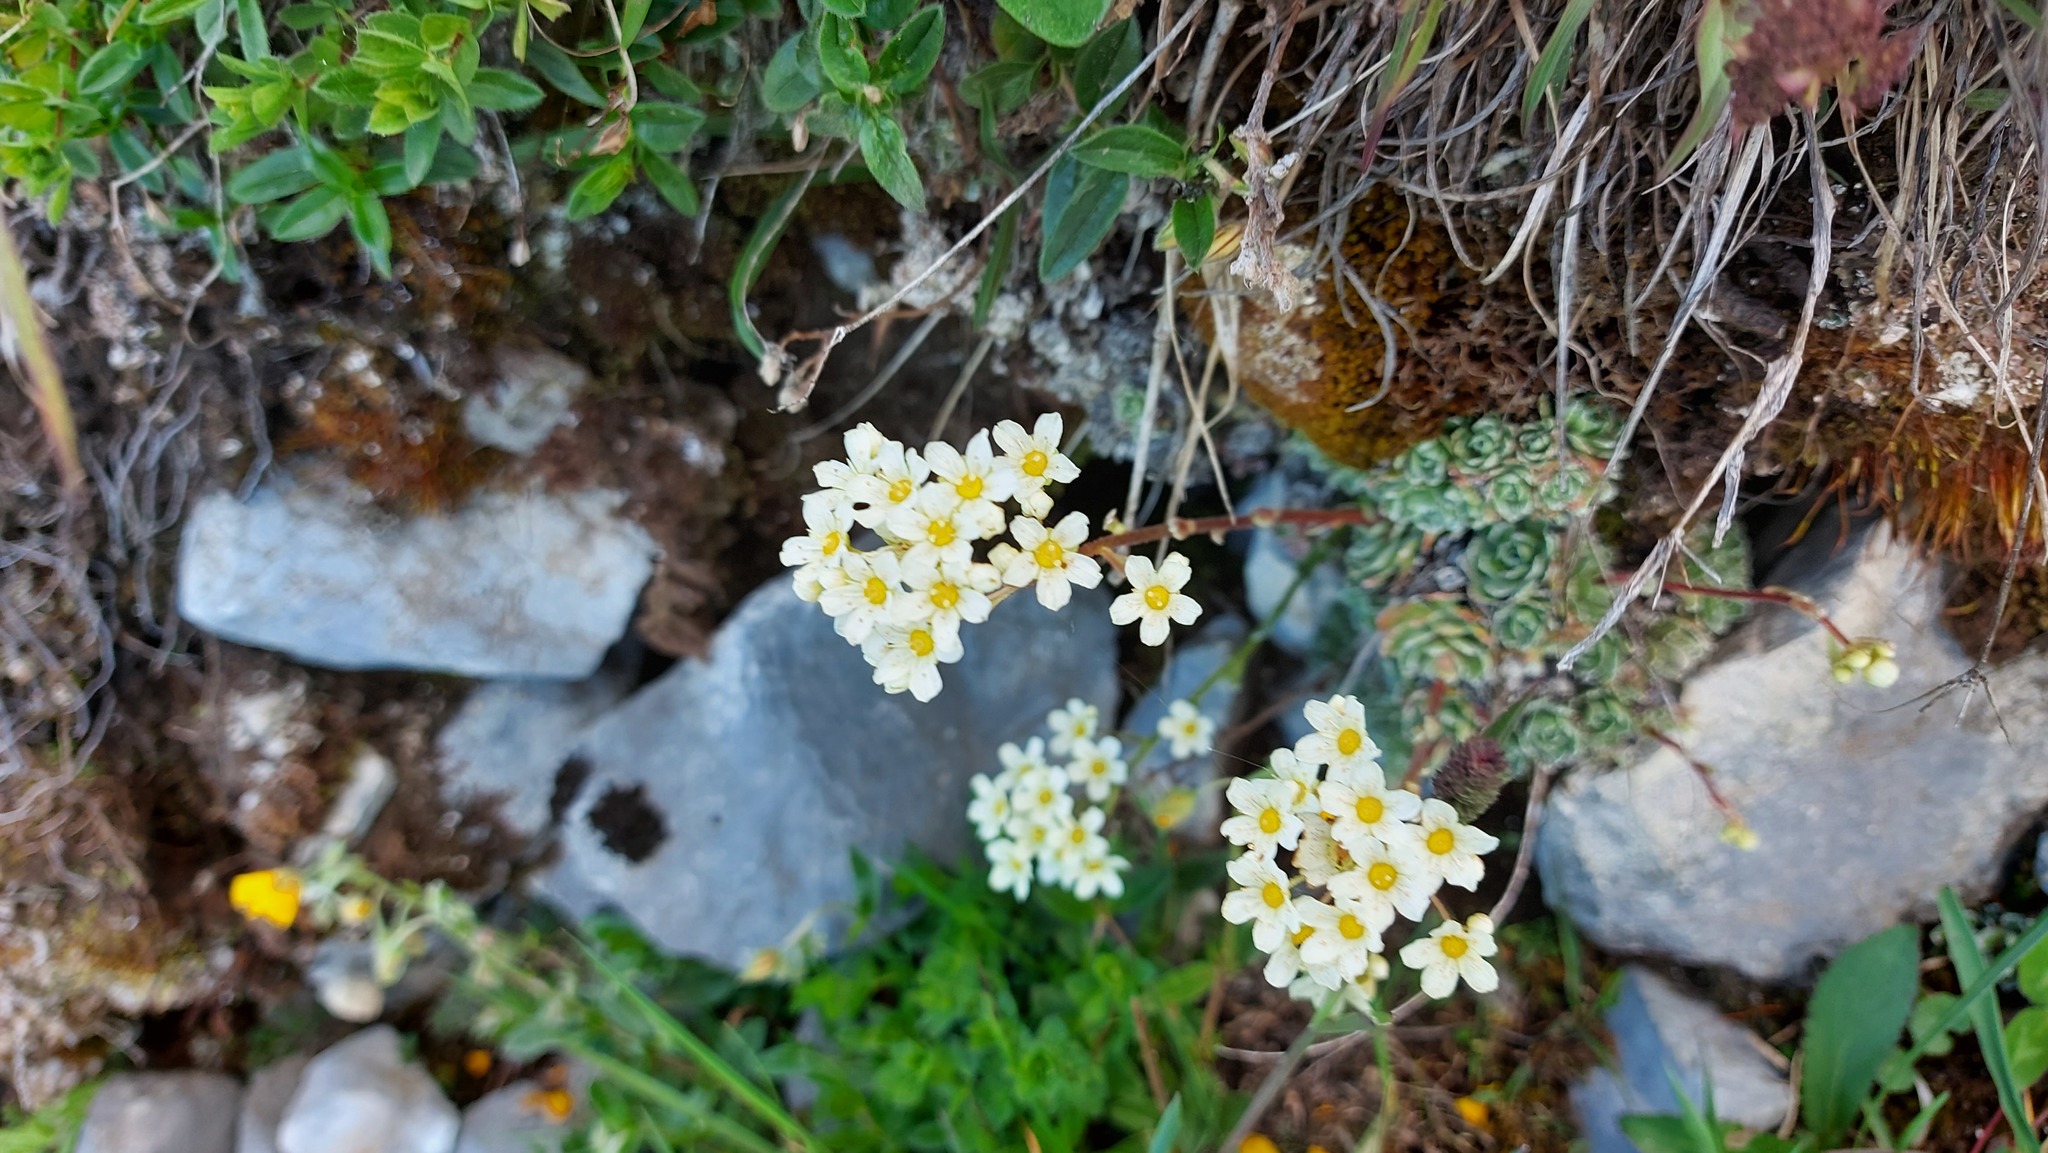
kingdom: Plantae
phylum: Tracheophyta
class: Magnoliopsida
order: Saxifragales
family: Saxifragaceae
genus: Saxifraga
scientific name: Saxifraga paniculata
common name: Livelong saxifrage
